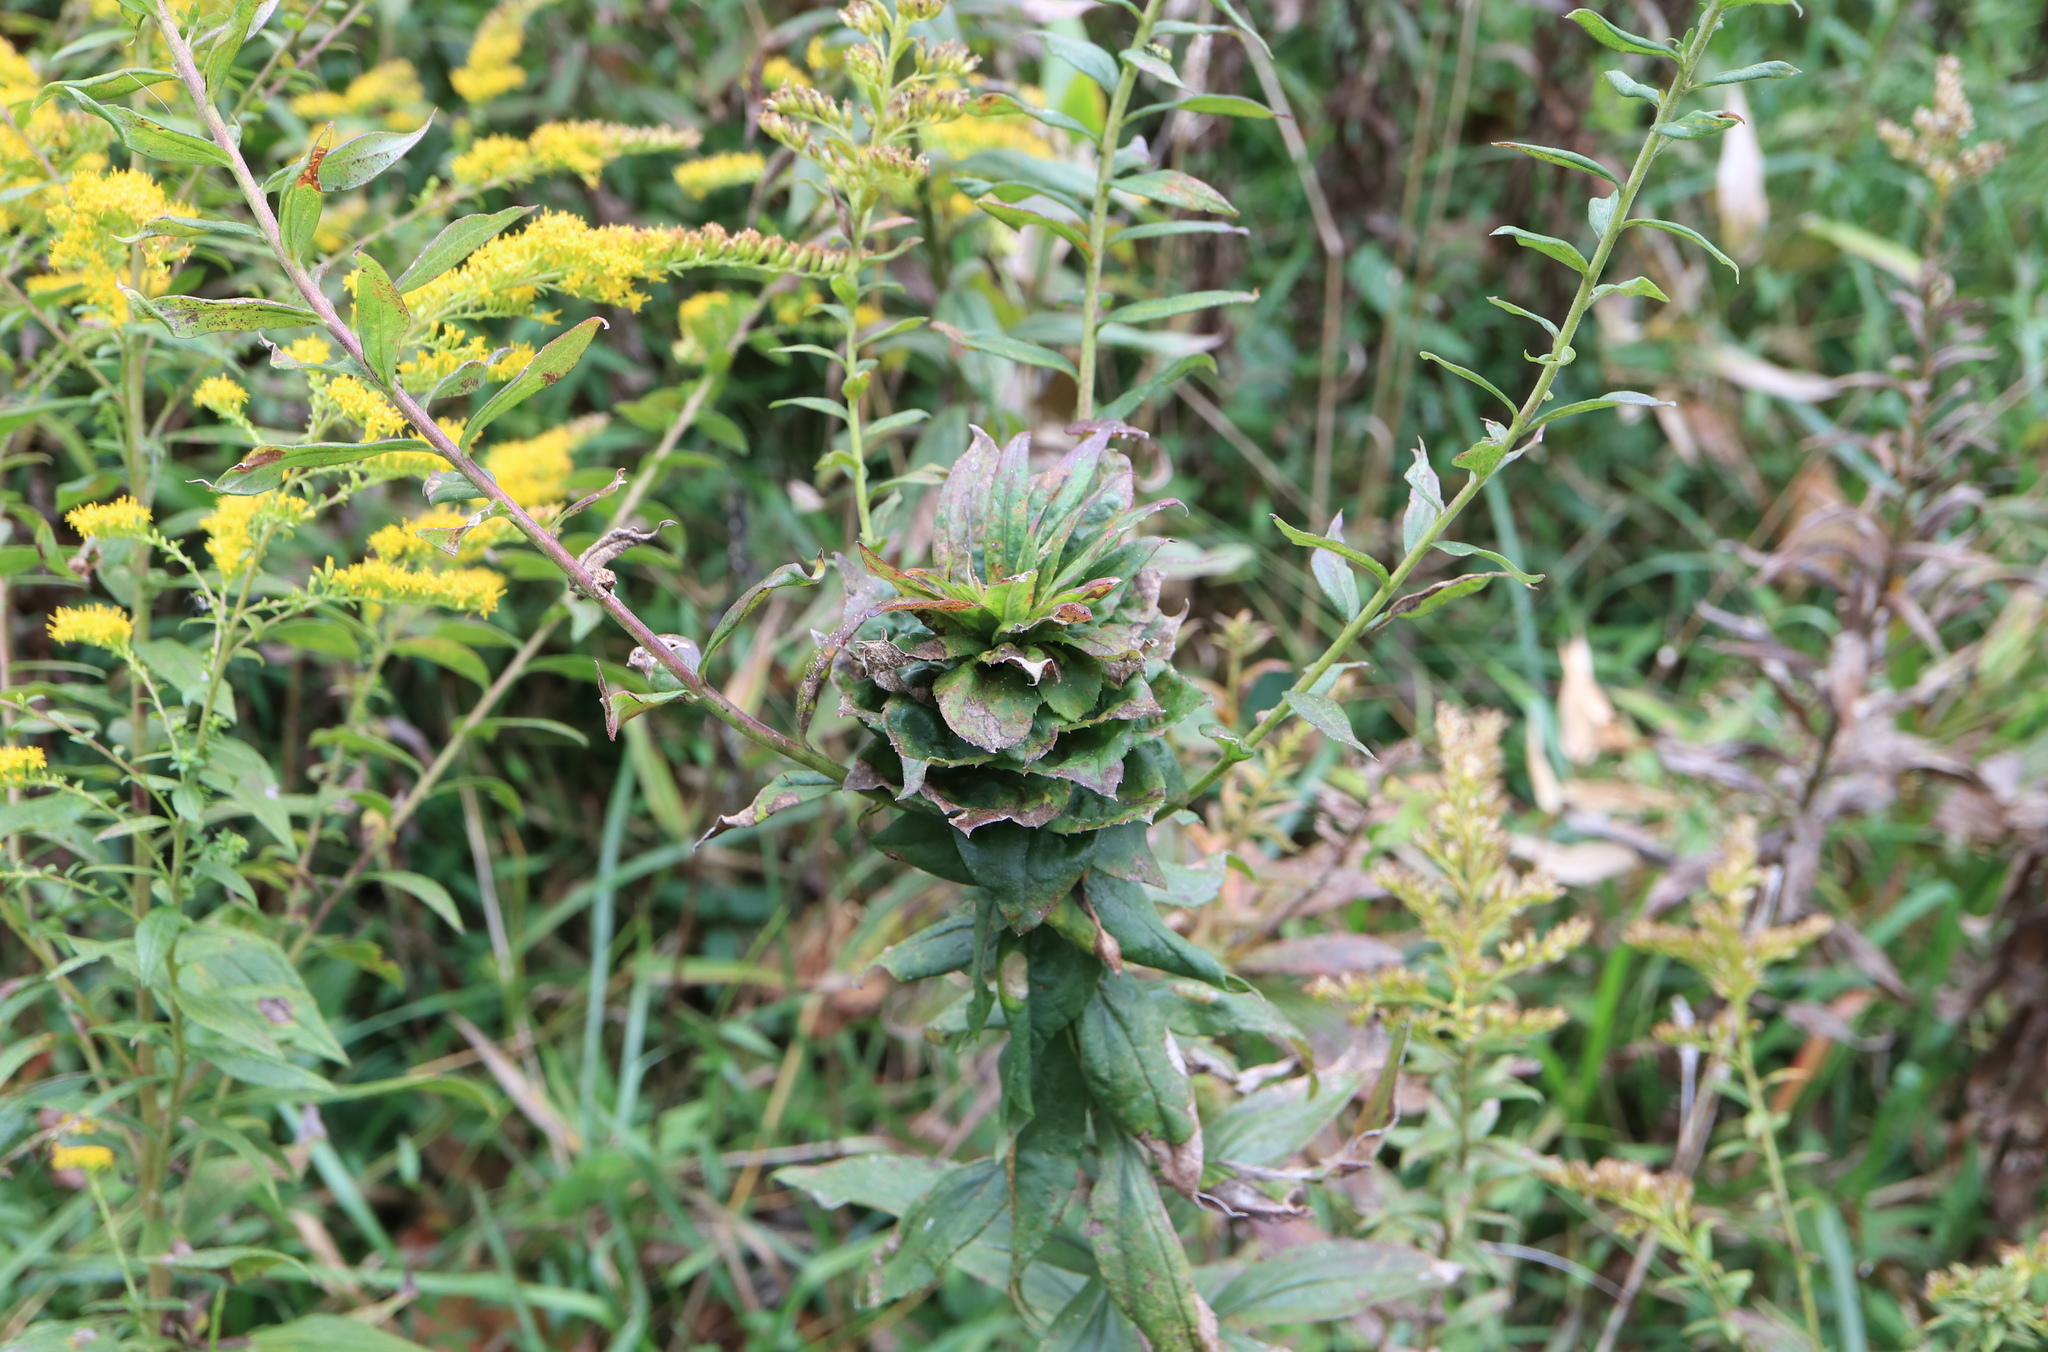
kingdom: Animalia
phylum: Arthropoda
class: Insecta
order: Diptera
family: Cecidomyiidae
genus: Rhopalomyia
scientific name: Rhopalomyia solidaginis
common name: Goldenrod bunch gall midge
